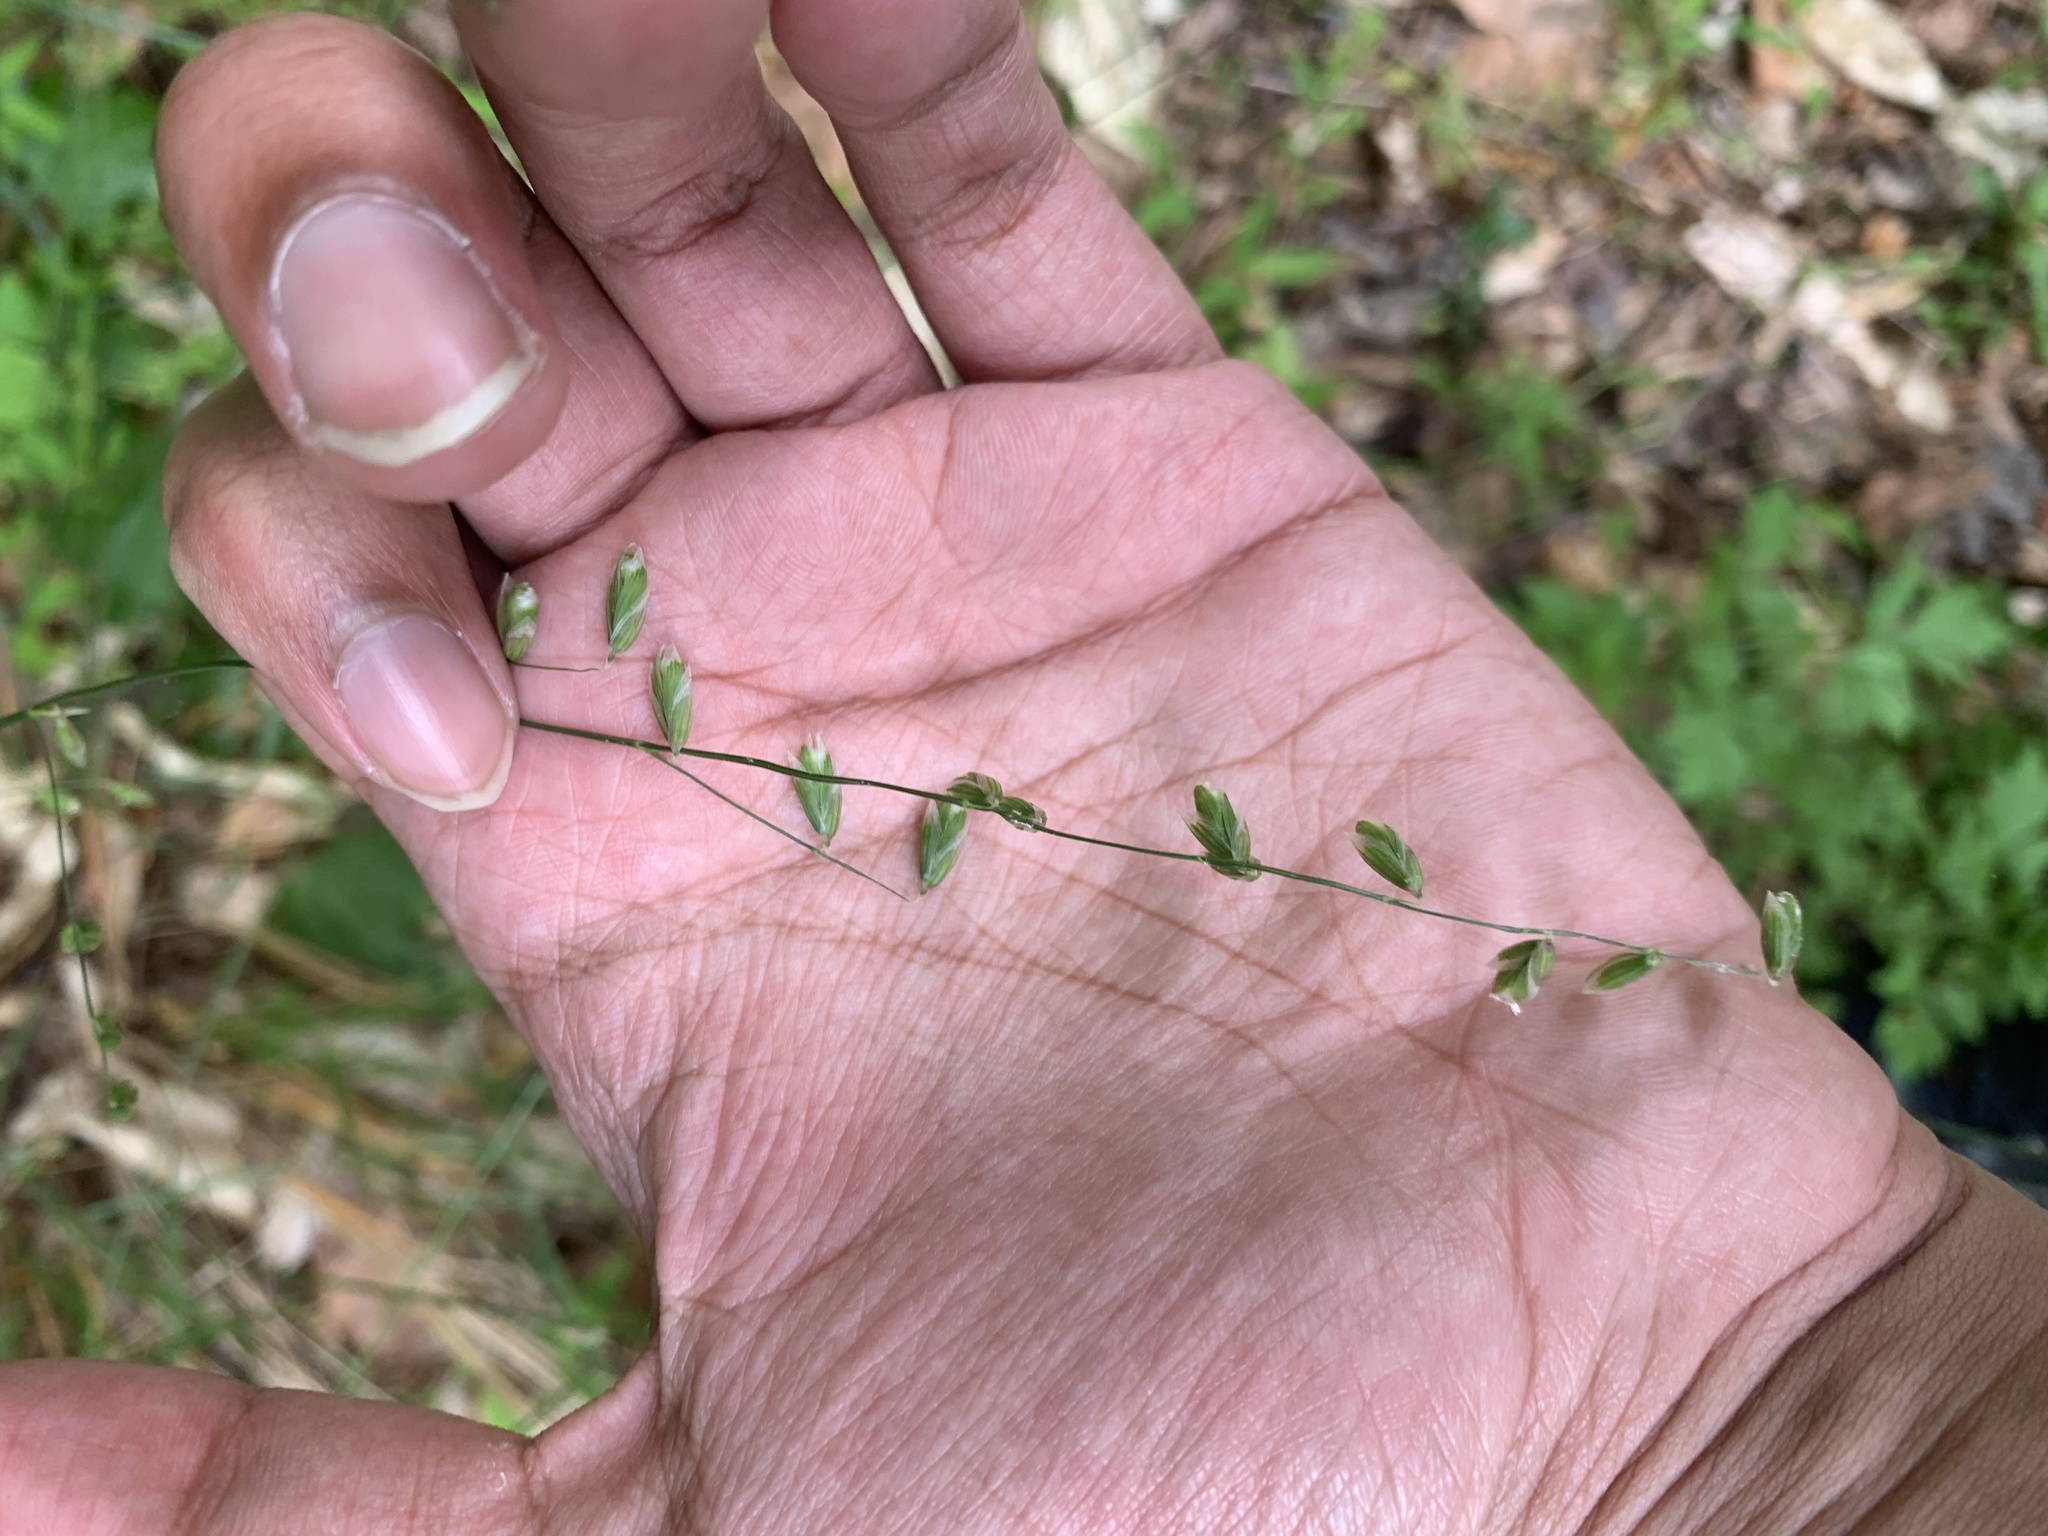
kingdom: Plantae
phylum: Tracheophyta
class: Liliopsida
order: Poales
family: Poaceae
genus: Melica
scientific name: Melica mutica
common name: Two-flower melic
